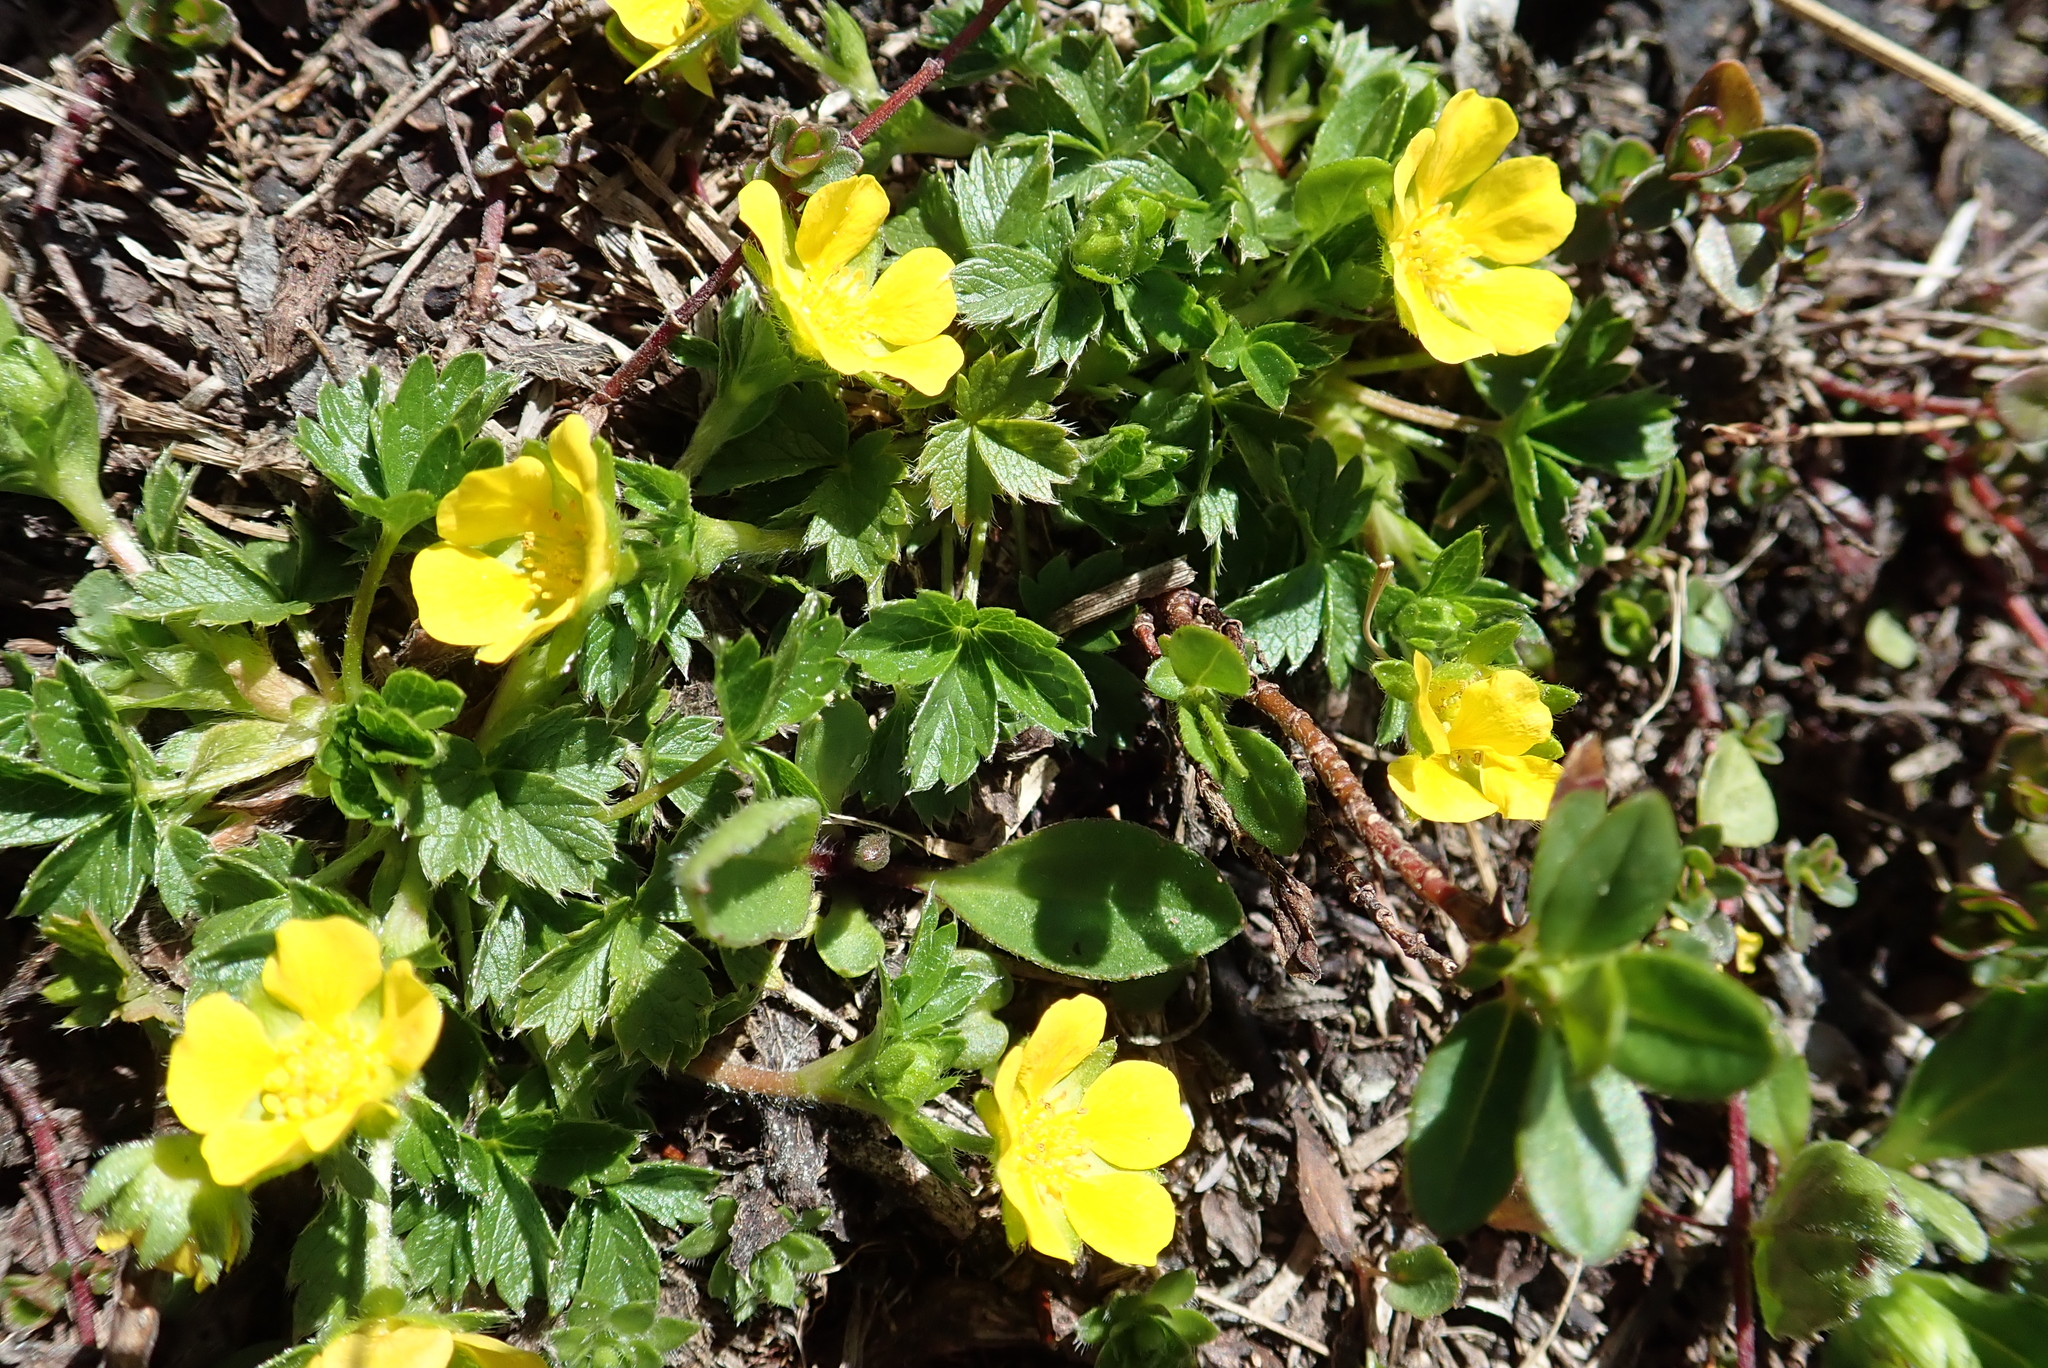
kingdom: Plantae
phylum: Tracheophyta
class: Magnoliopsida
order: Rosales
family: Rosaceae
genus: Potentilla
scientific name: Potentilla brauneana
